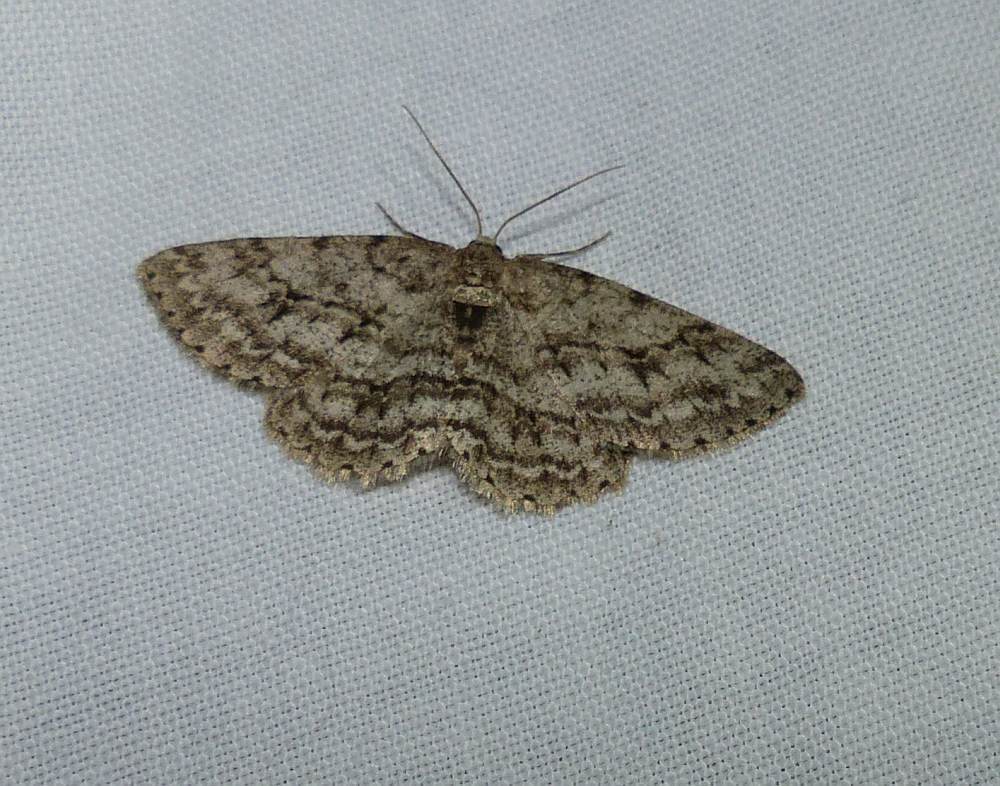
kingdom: Animalia
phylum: Arthropoda
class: Insecta
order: Lepidoptera
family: Geometridae
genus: Ectropis
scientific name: Ectropis crepuscularia
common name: Engrailed
